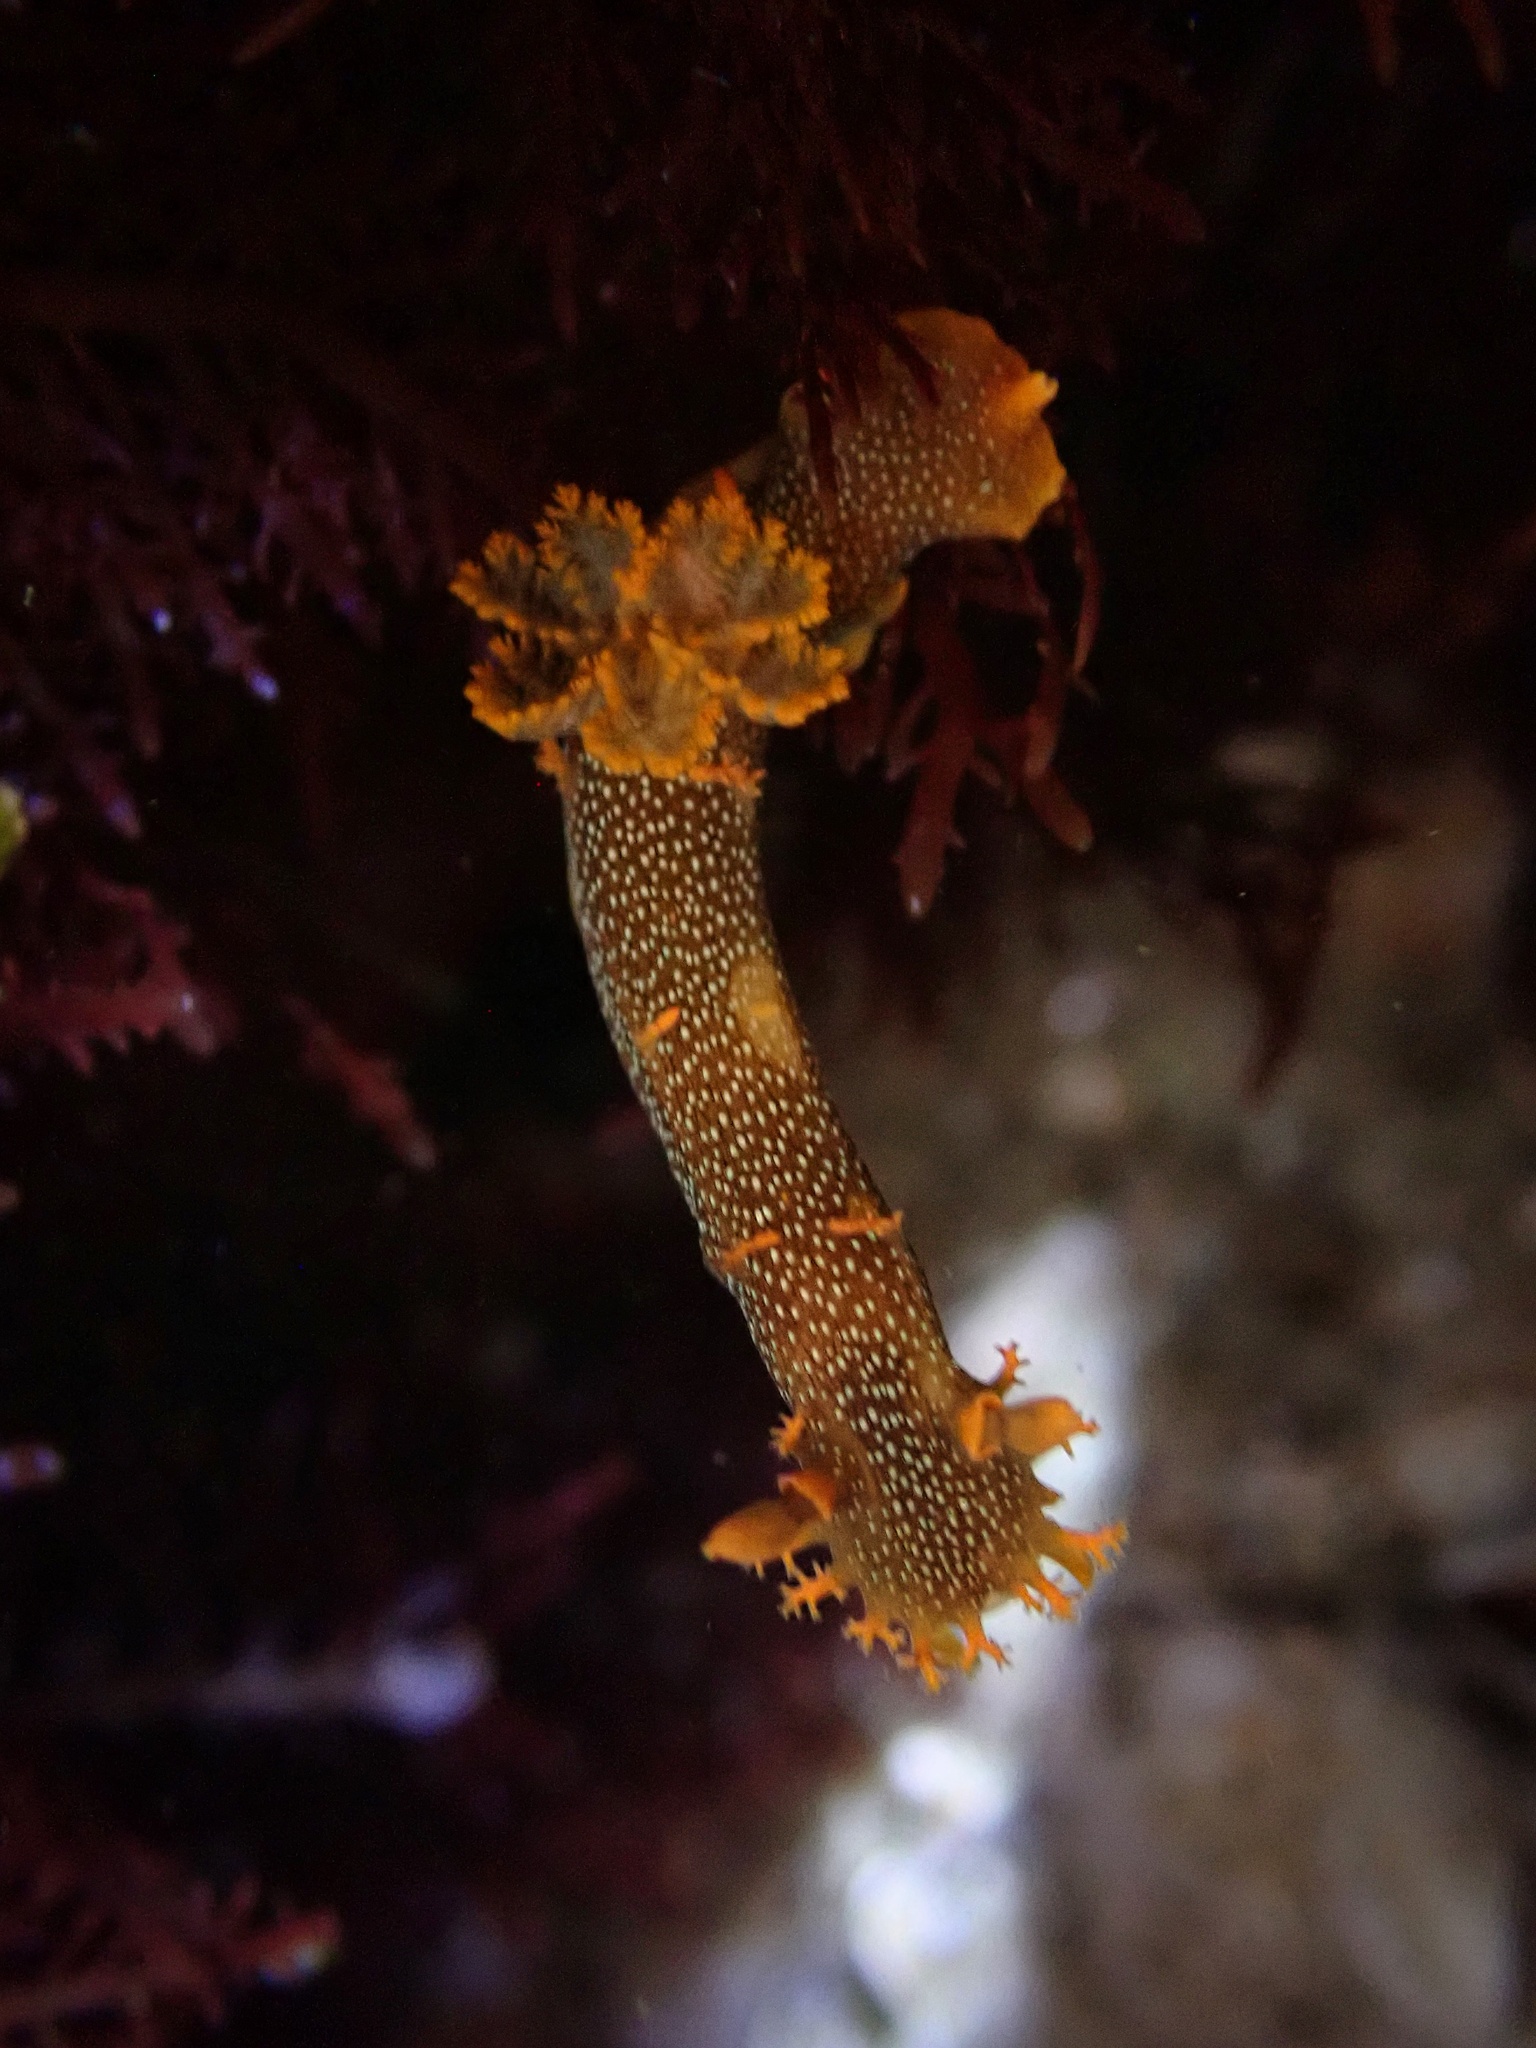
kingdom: Animalia
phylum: Mollusca
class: Gastropoda
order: Nudibranchia
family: Polyceridae
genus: Triopha
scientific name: Triopha maculata
